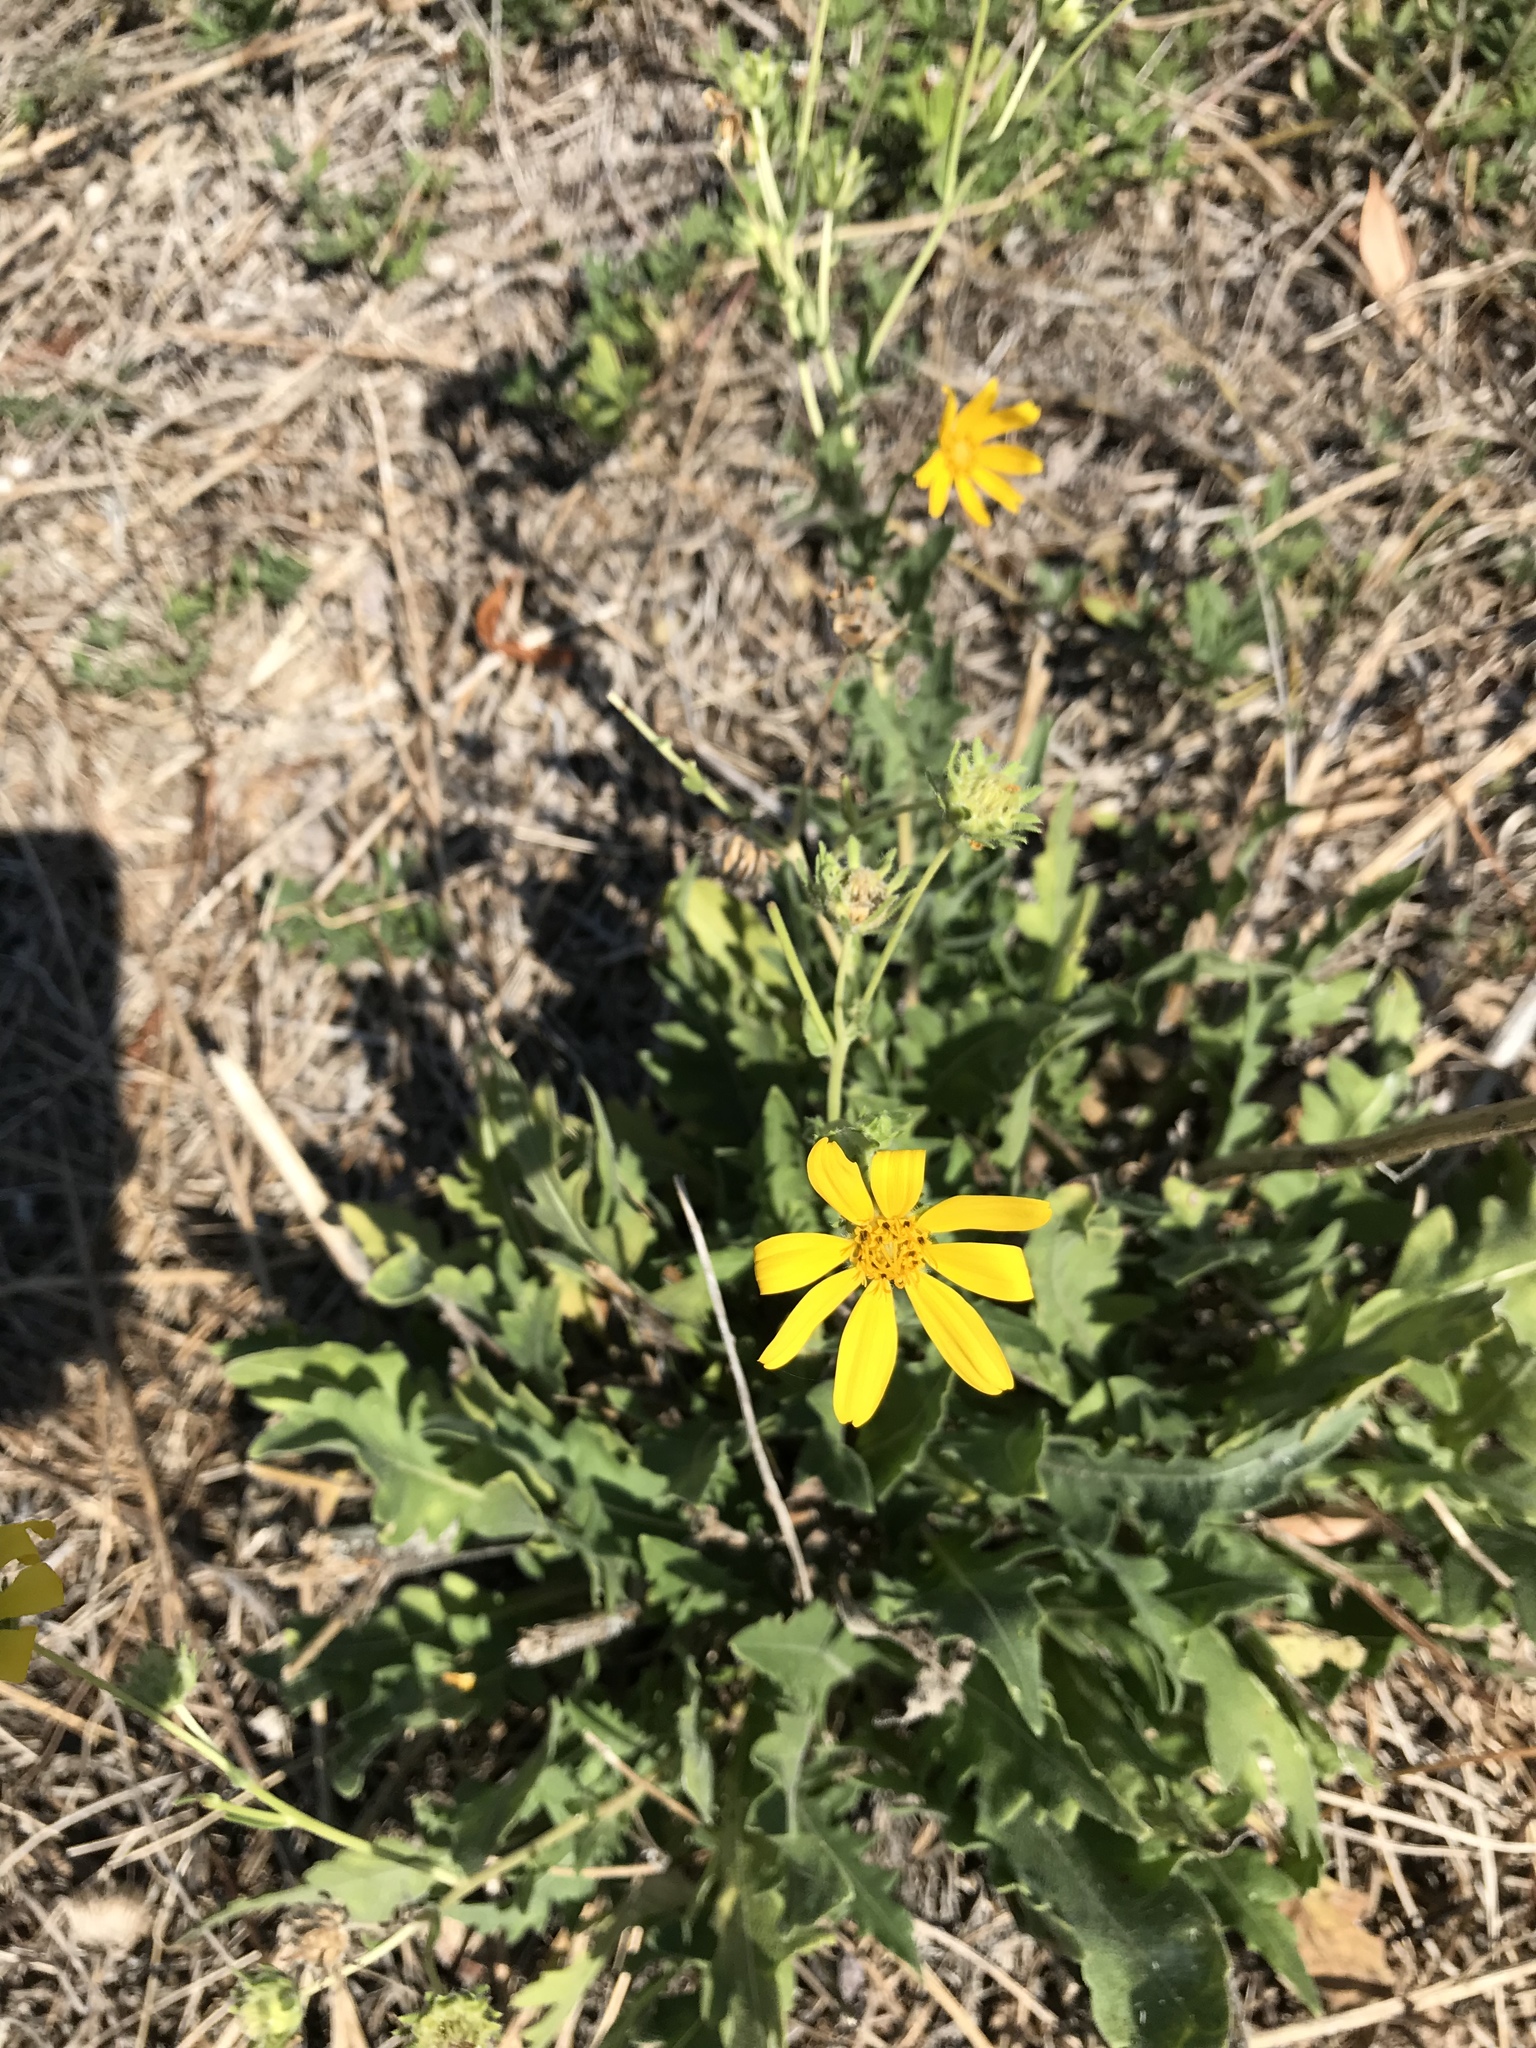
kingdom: Plantae
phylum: Tracheophyta
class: Magnoliopsida
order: Asterales
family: Asteraceae
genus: Engelmannia
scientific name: Engelmannia peristenia
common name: Engelmann's daisy
